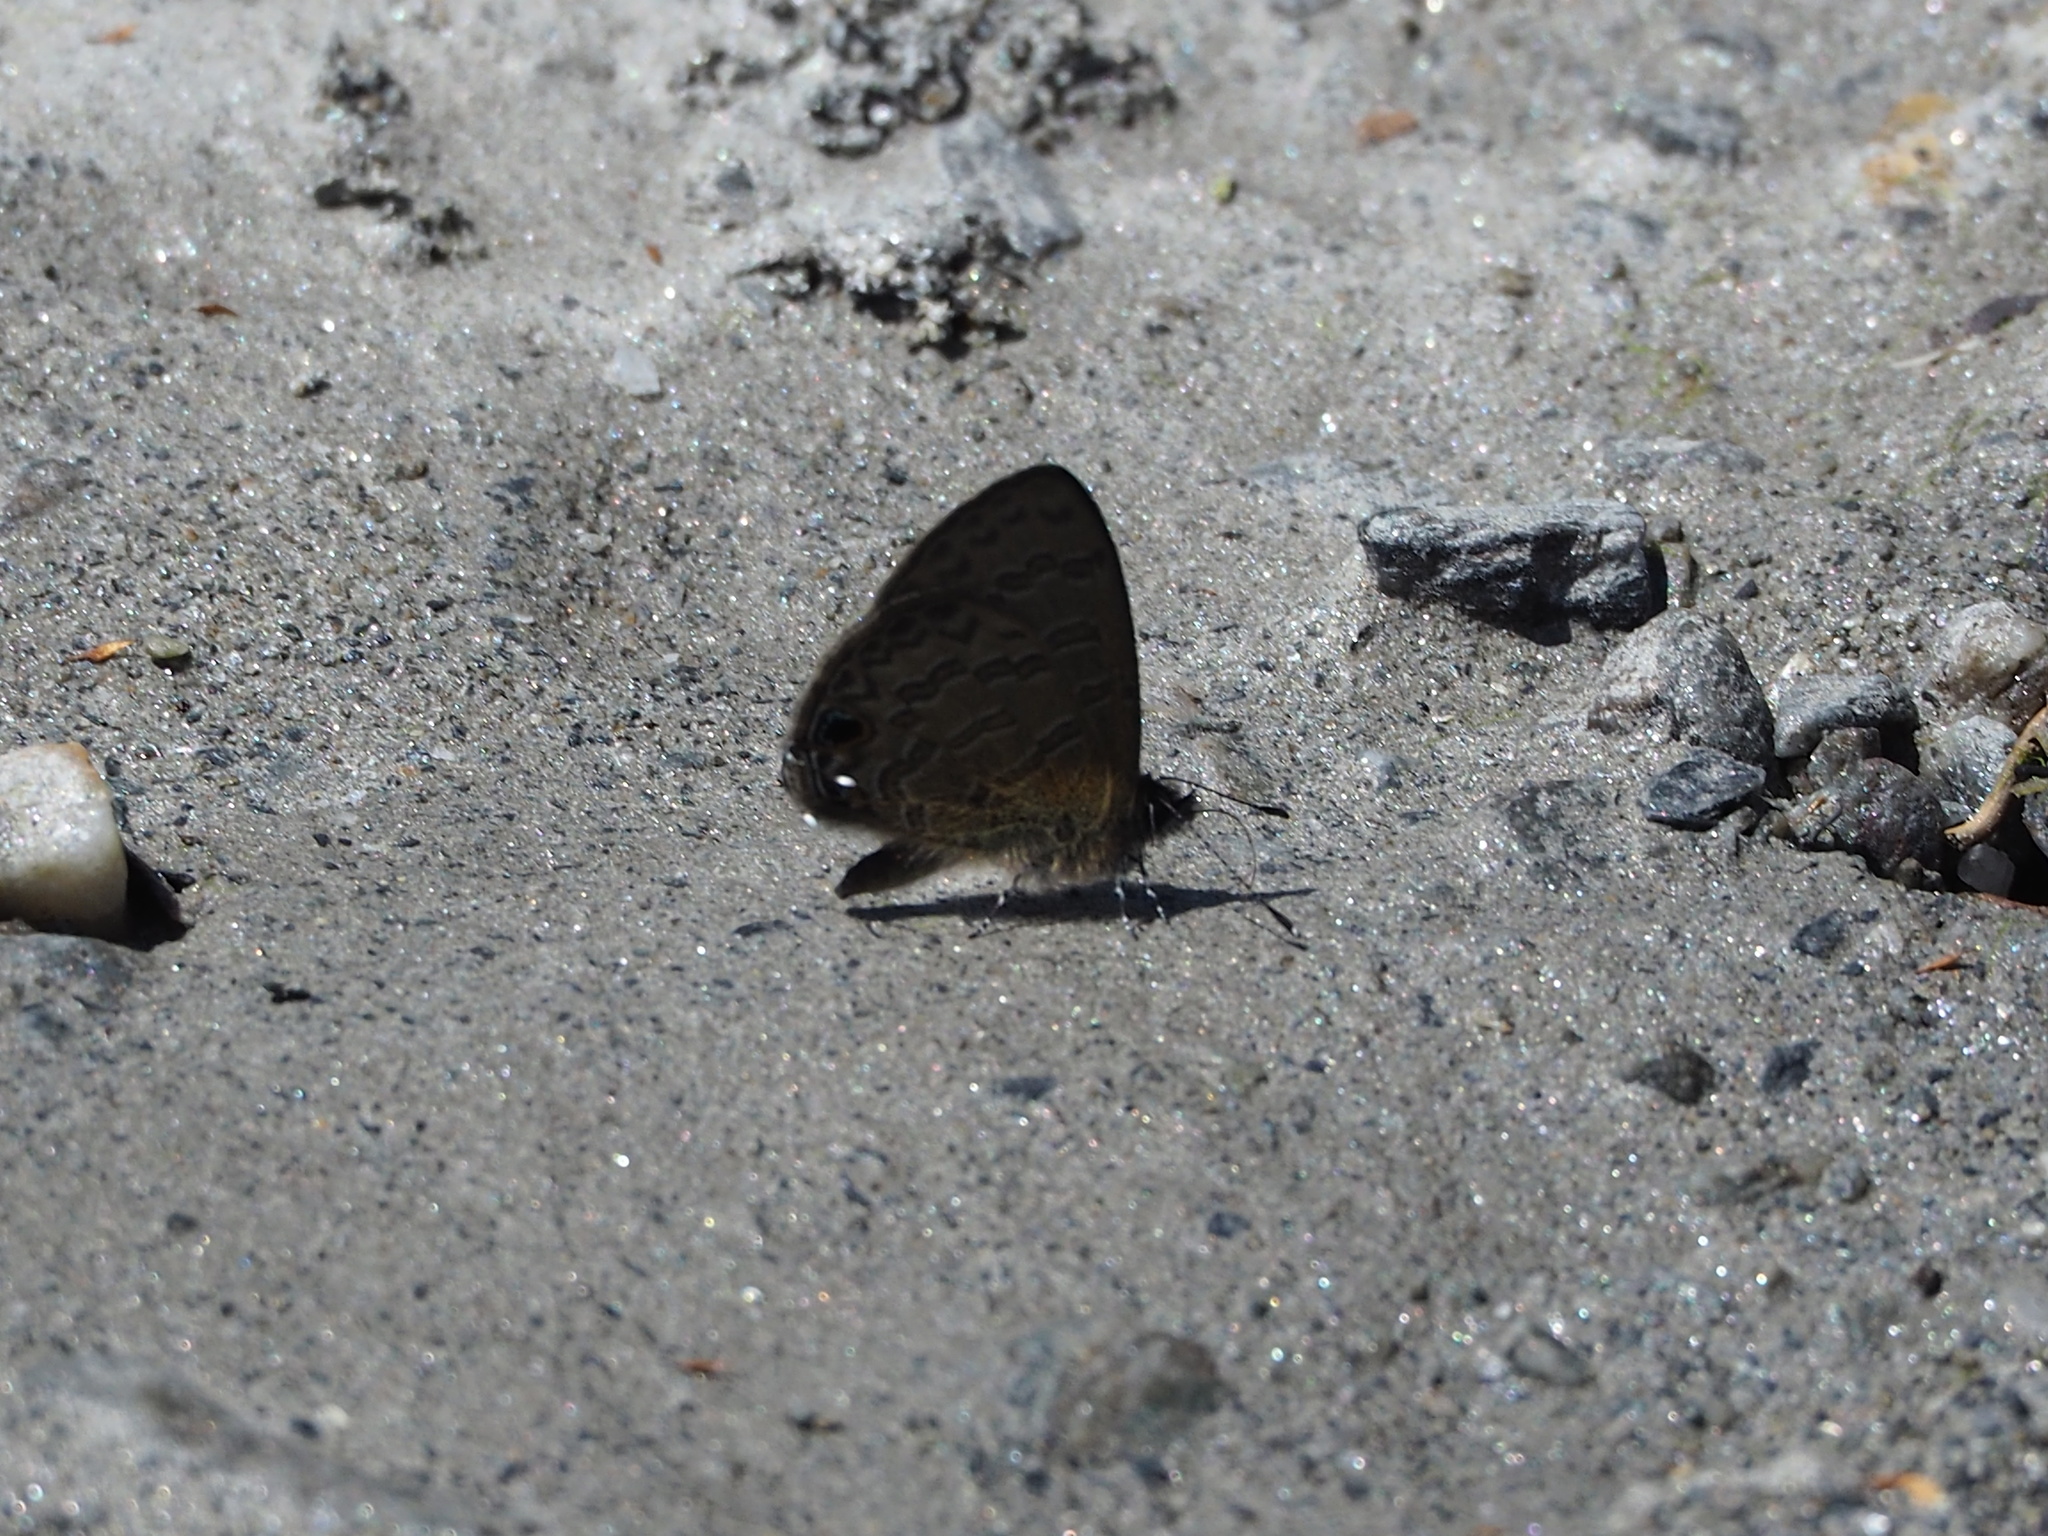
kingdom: Animalia
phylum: Arthropoda
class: Insecta
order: Lepidoptera
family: Lycaenidae
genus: Prosotas
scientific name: Prosotas nora
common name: Common line blue
